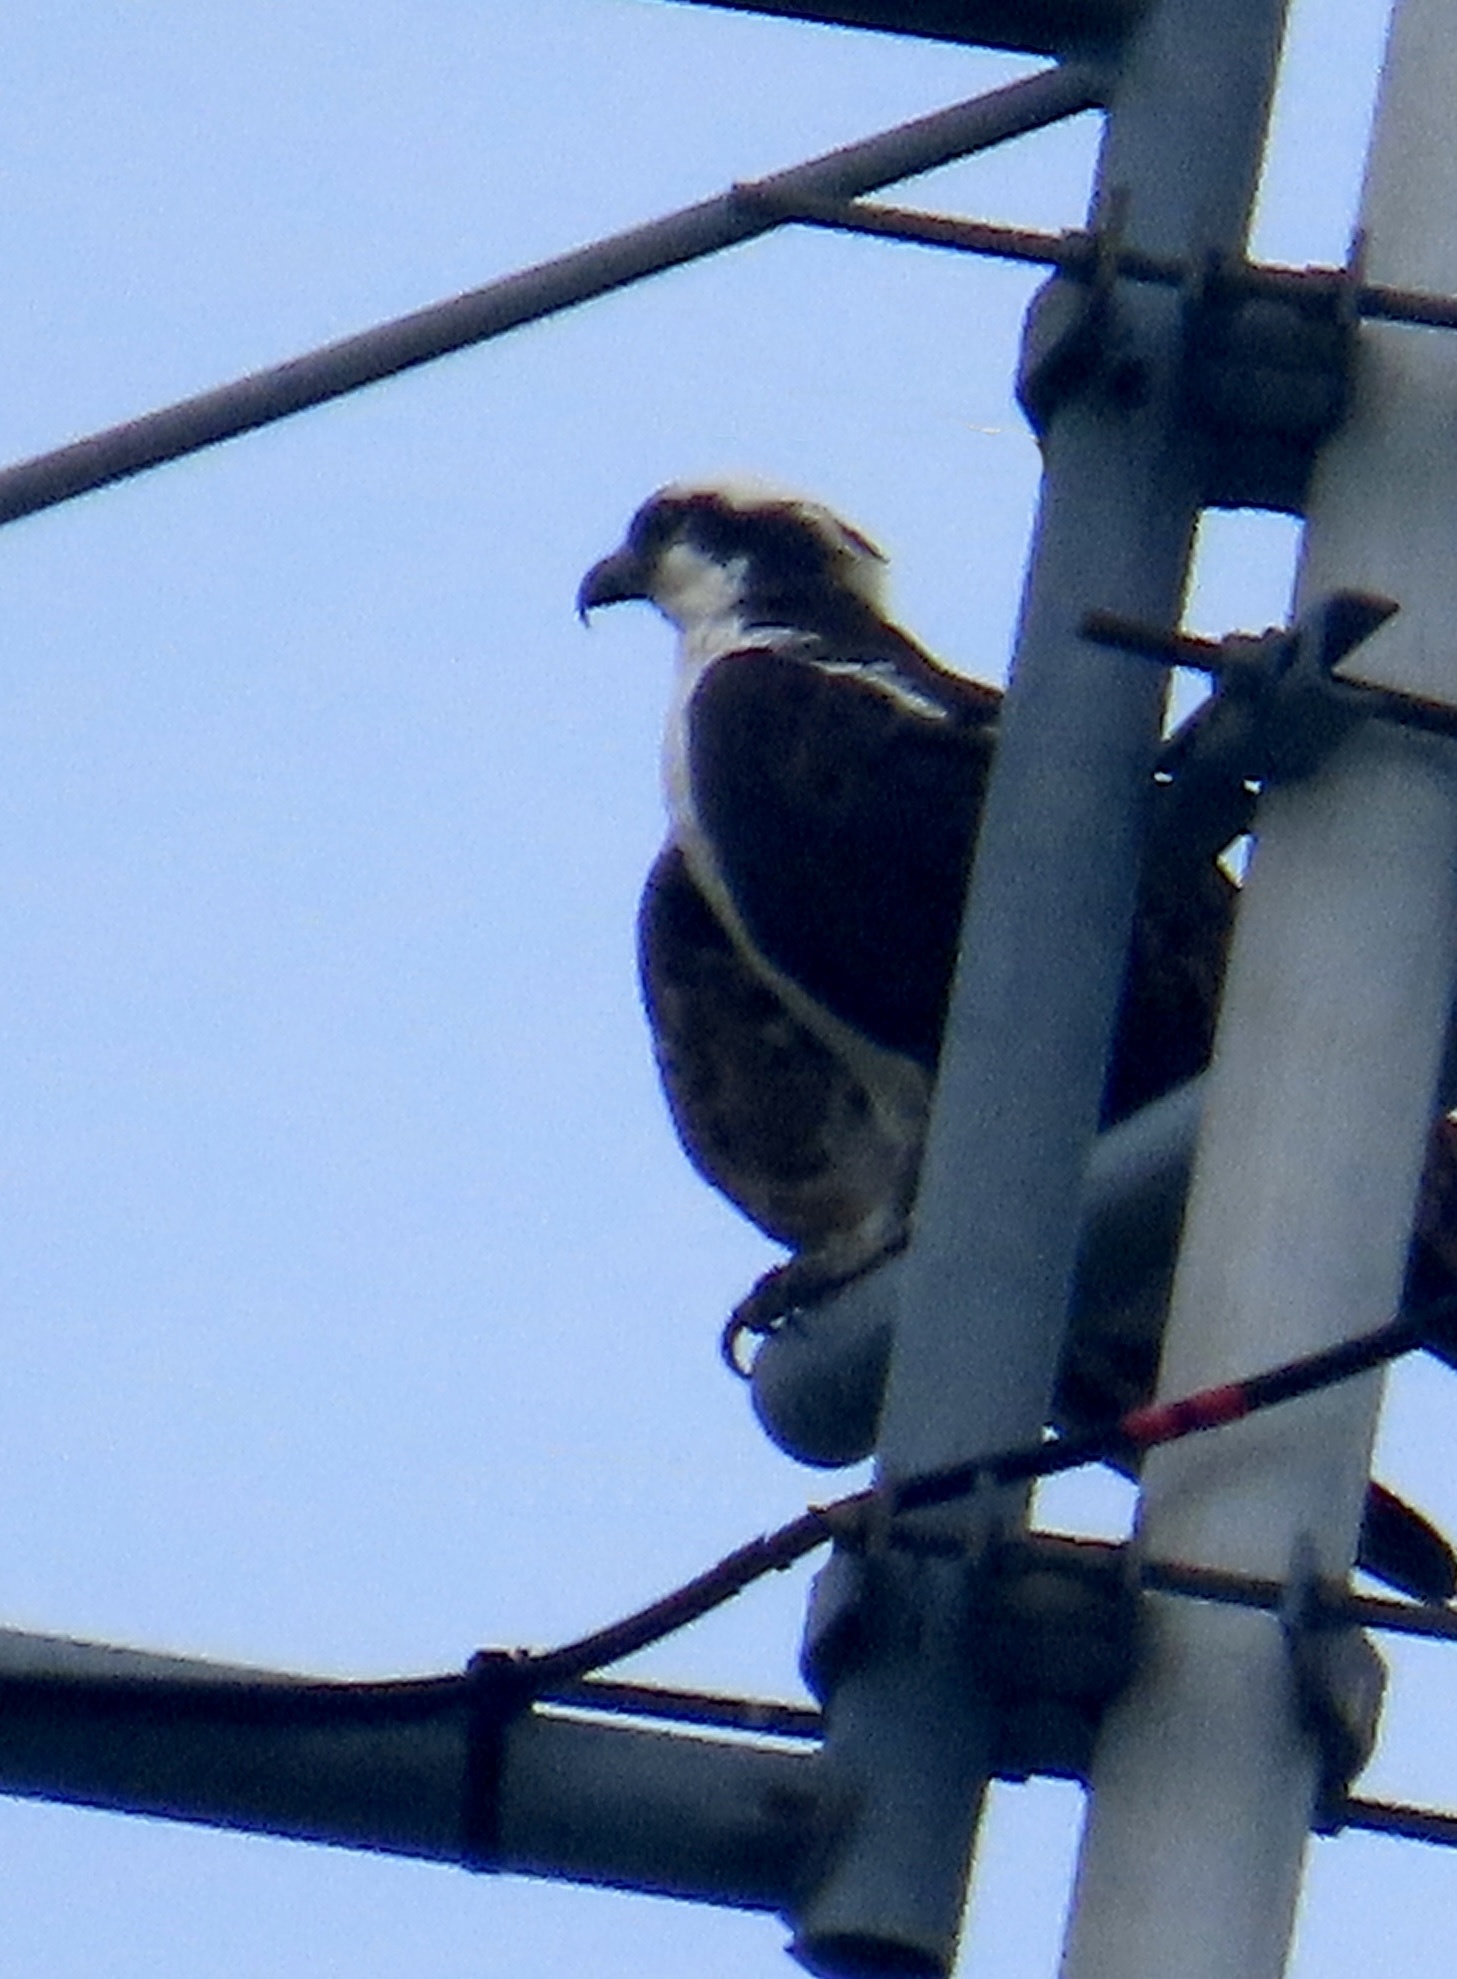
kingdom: Animalia
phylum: Chordata
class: Aves
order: Accipitriformes
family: Pandionidae
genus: Pandion
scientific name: Pandion haliaetus
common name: Osprey
